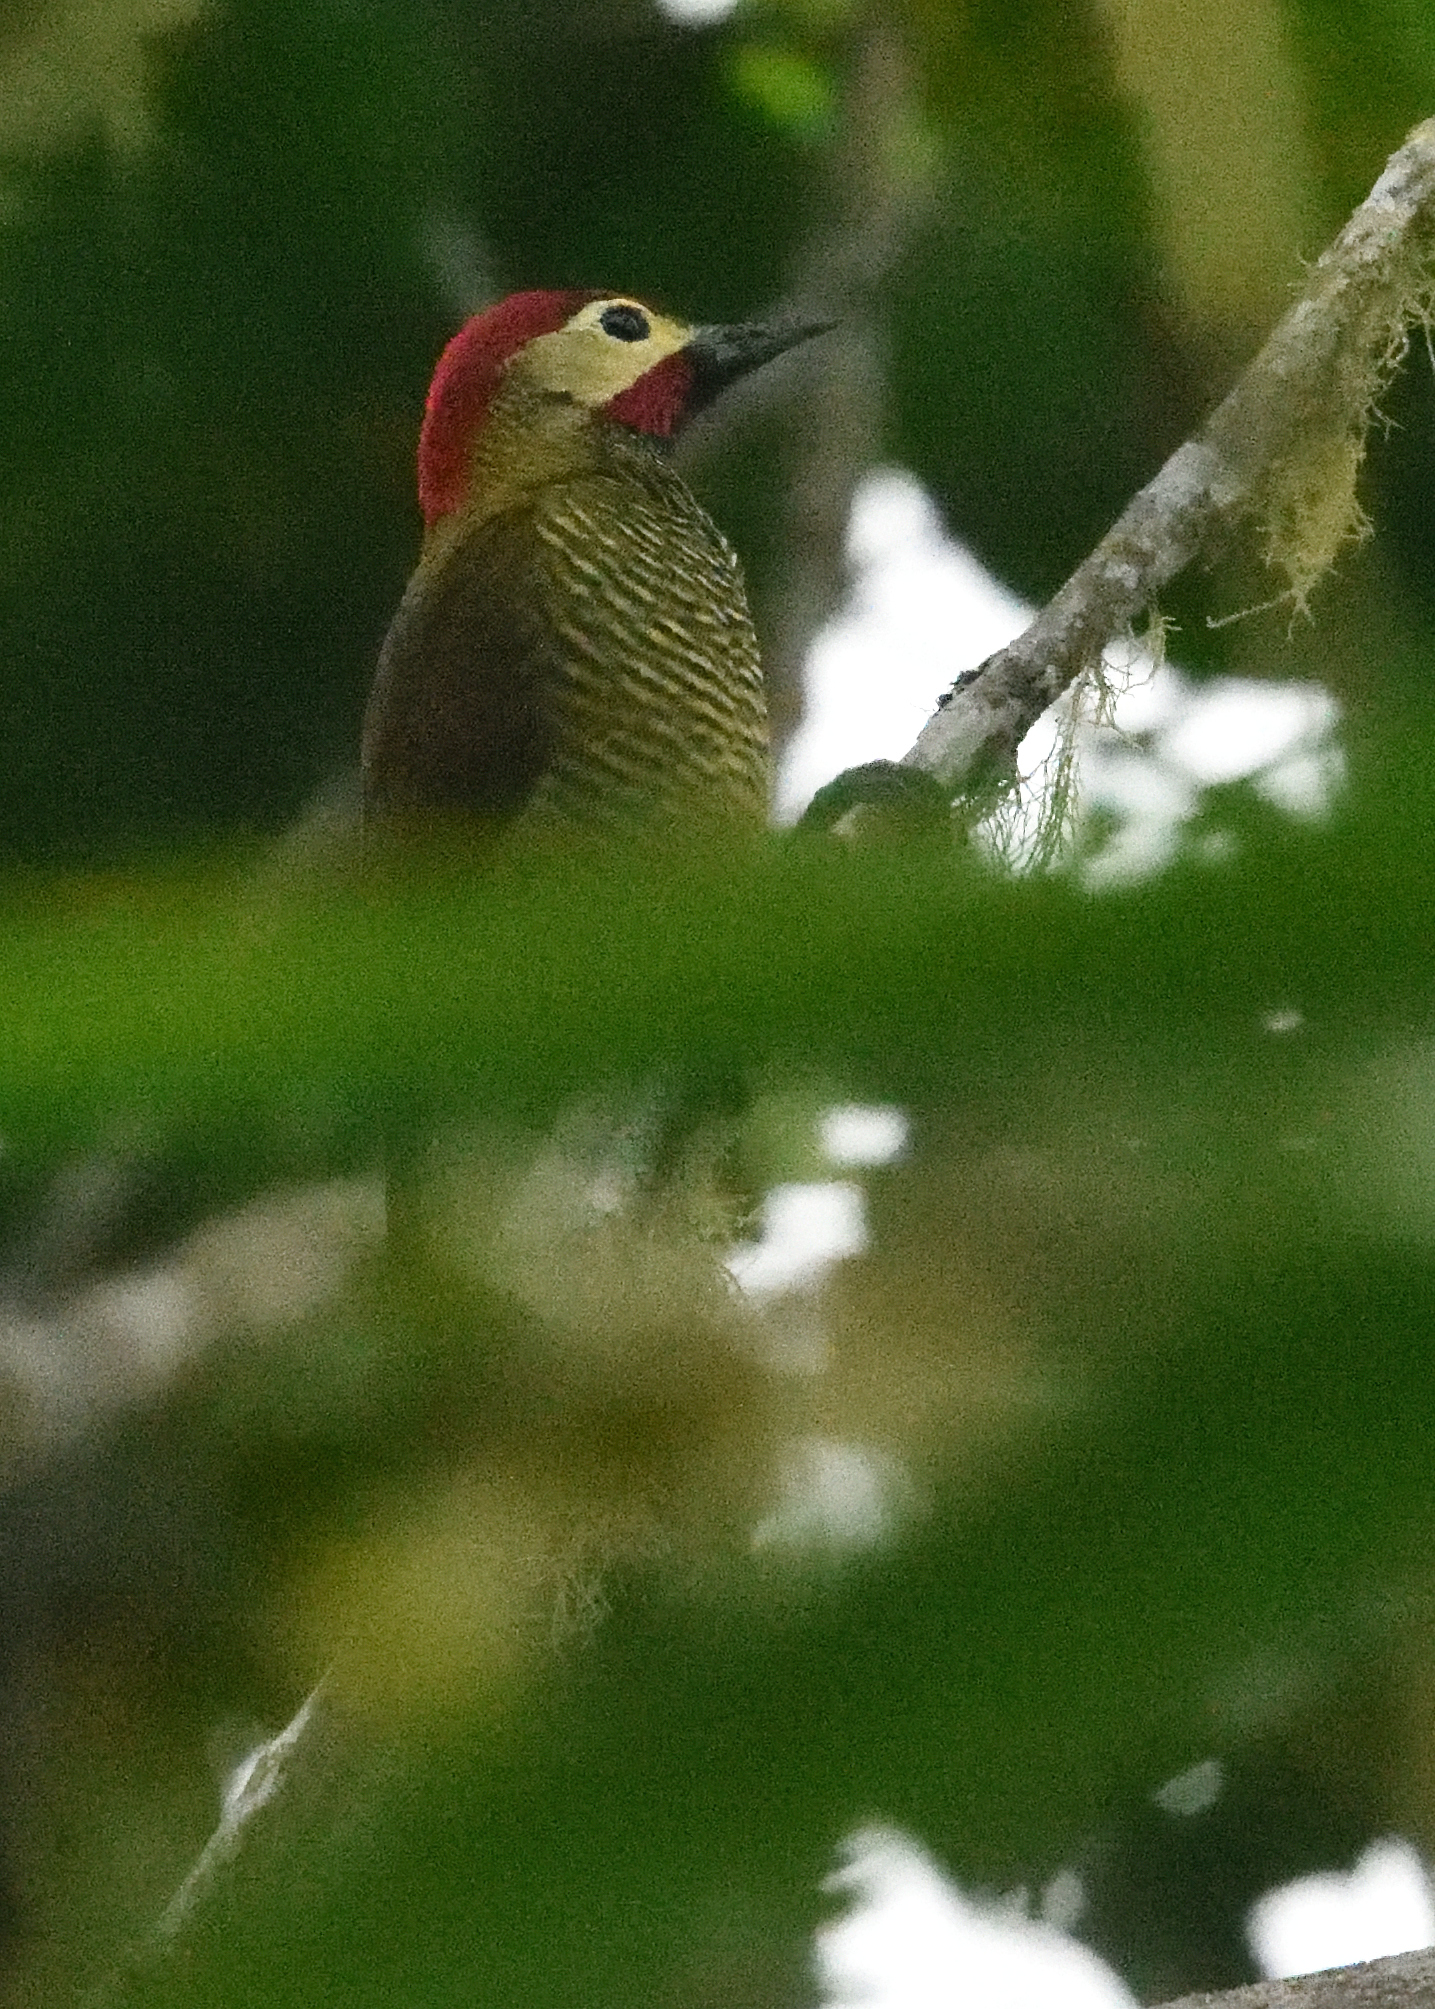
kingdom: Animalia
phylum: Chordata
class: Aves
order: Piciformes
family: Picidae
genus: Colaptes
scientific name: Colaptes rubiginosus
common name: Golden-olive woodpecker
